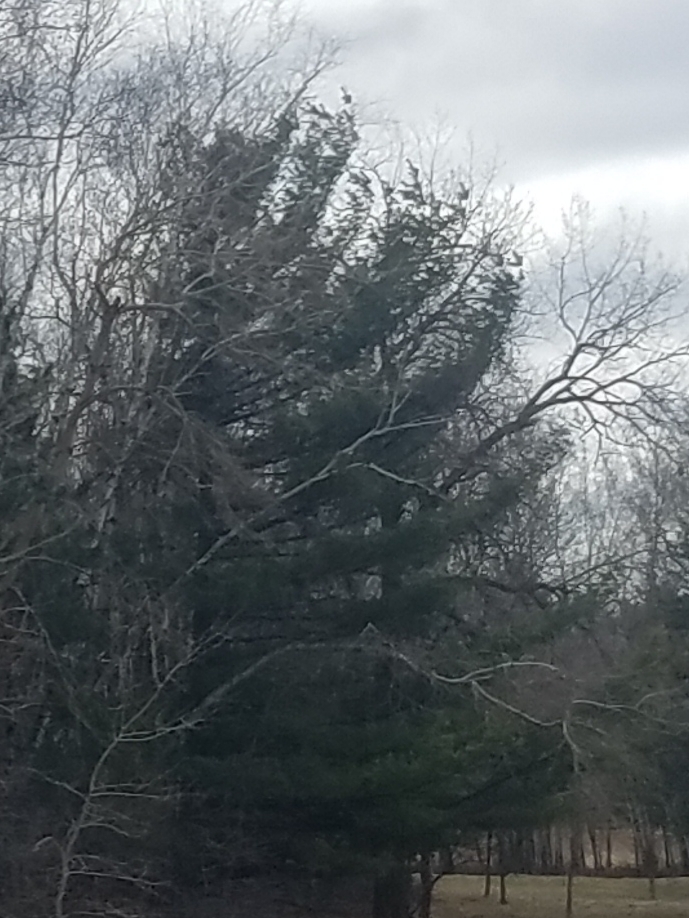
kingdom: Plantae
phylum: Tracheophyta
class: Pinopsida
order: Pinales
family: Pinaceae
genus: Pinus
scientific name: Pinus strobus
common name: Weymouth pine
